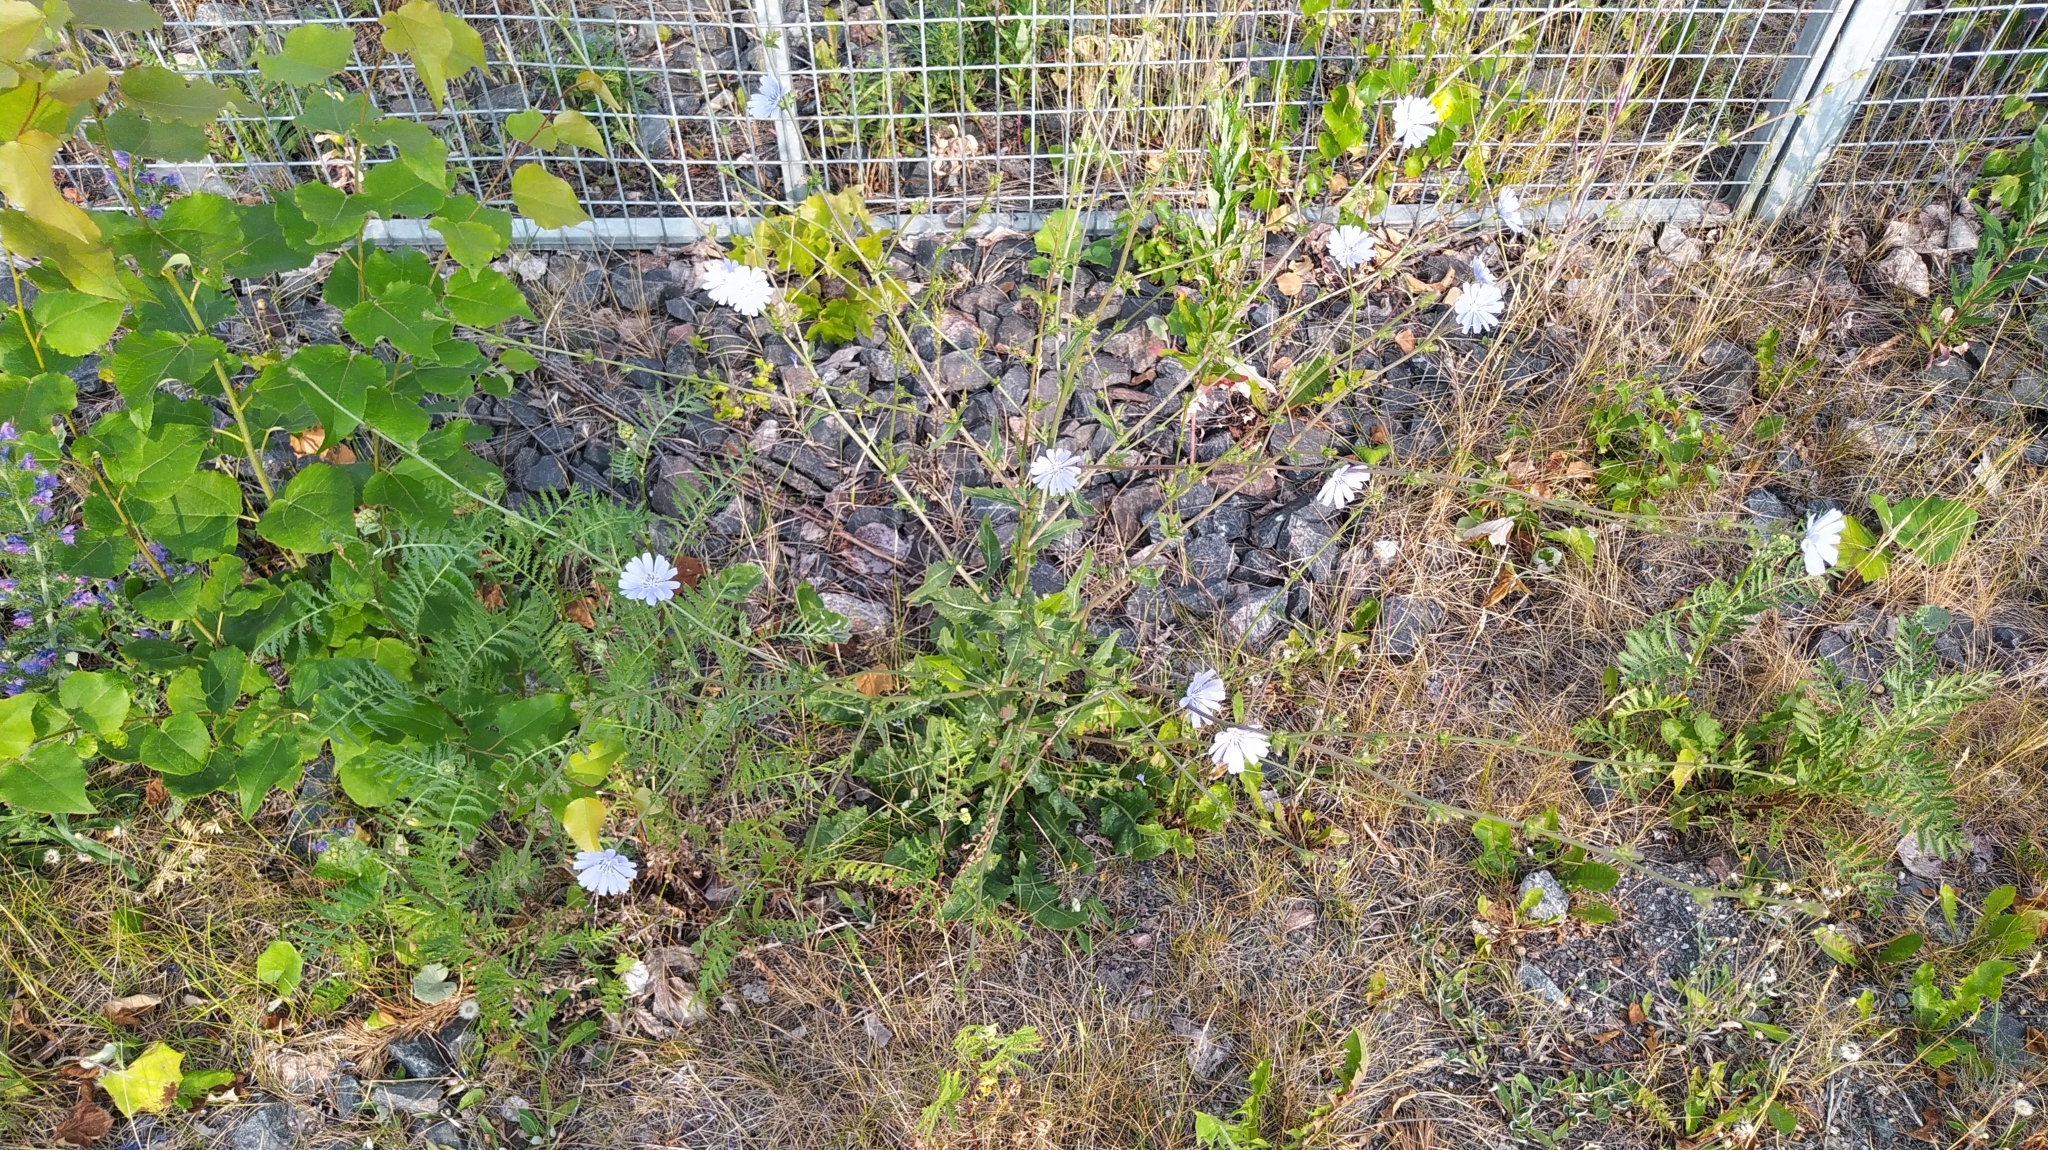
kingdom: Plantae
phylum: Tracheophyta
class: Magnoliopsida
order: Asterales
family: Asteraceae
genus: Cichorium
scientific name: Cichorium intybus
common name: Chicory
